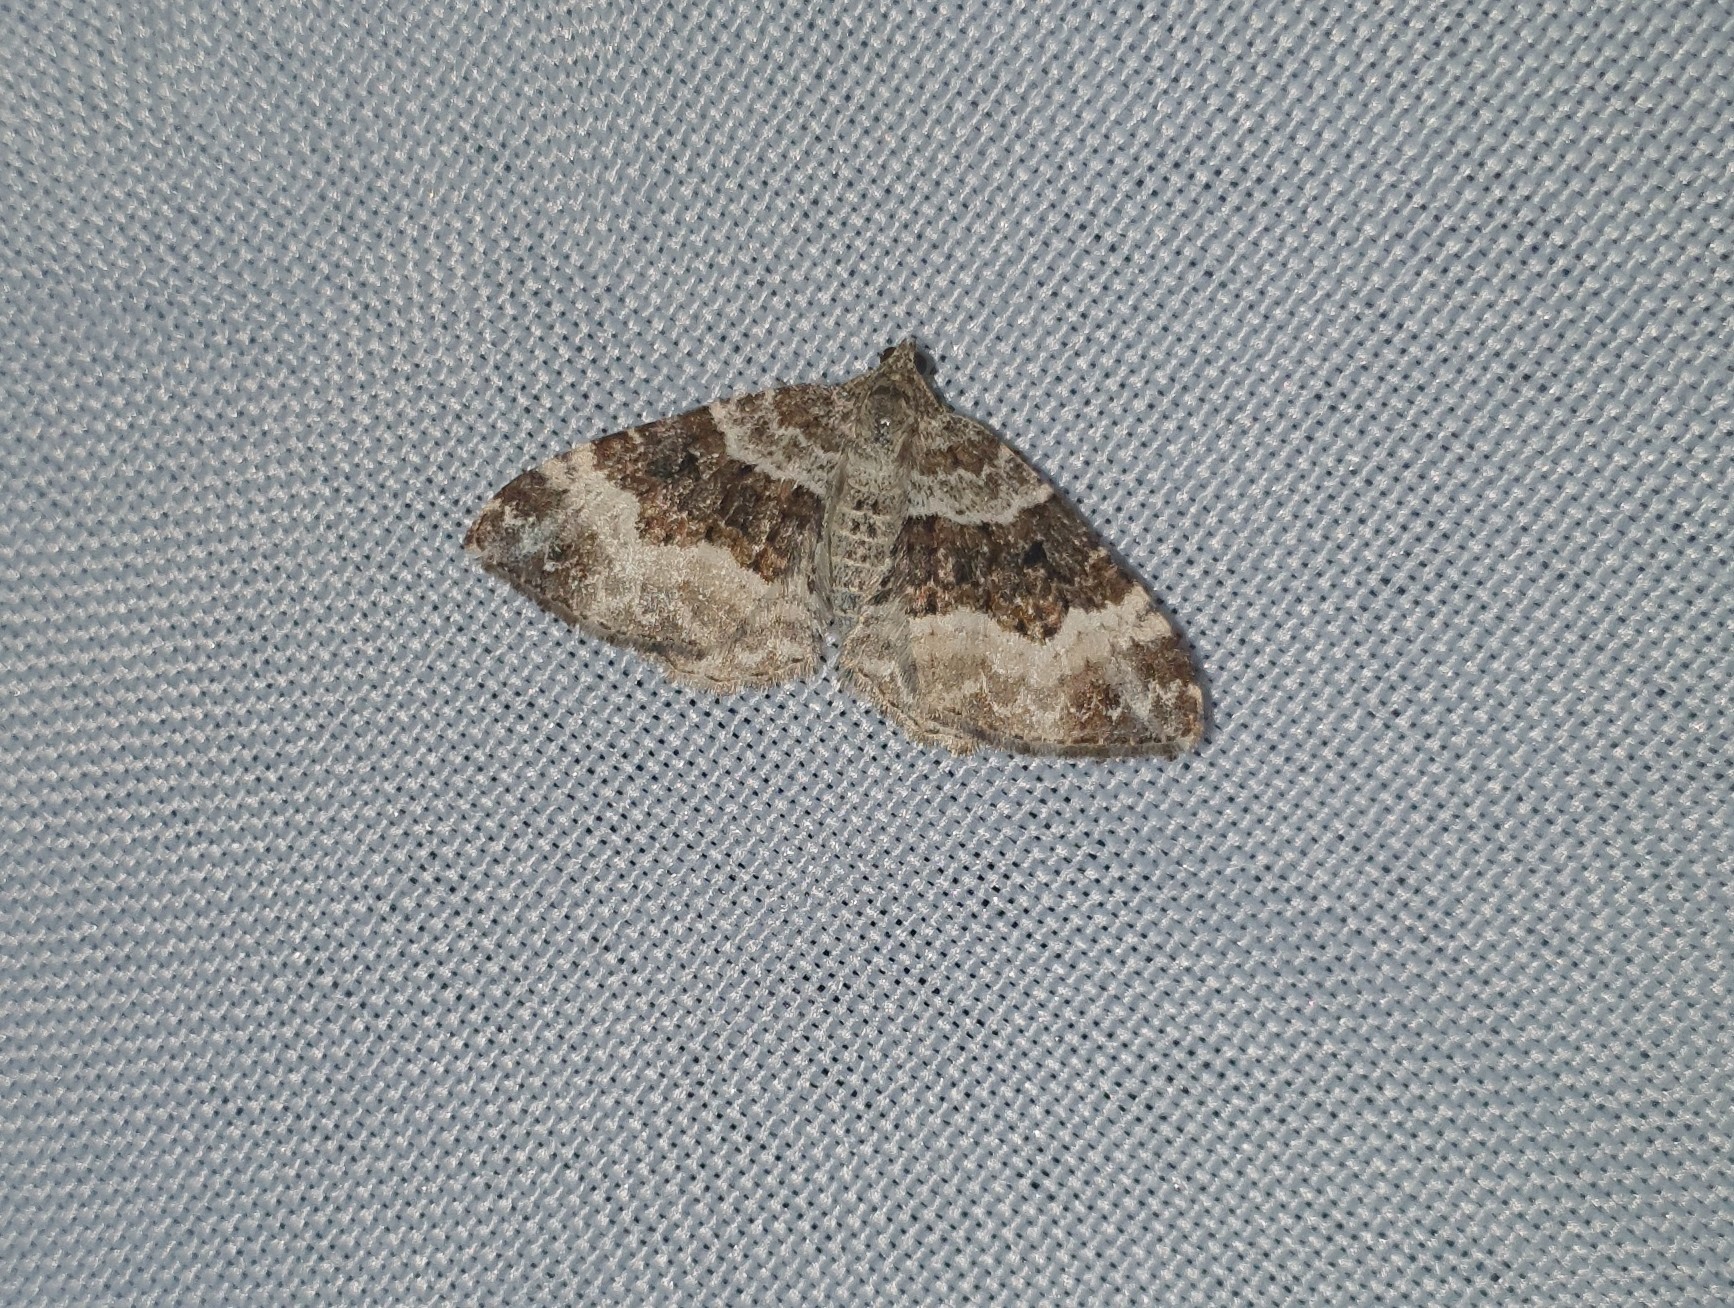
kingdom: Animalia
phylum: Arthropoda
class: Insecta
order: Lepidoptera
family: Geometridae
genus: Epirrhoe
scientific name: Epirrhoe alternata
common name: Common carpet
